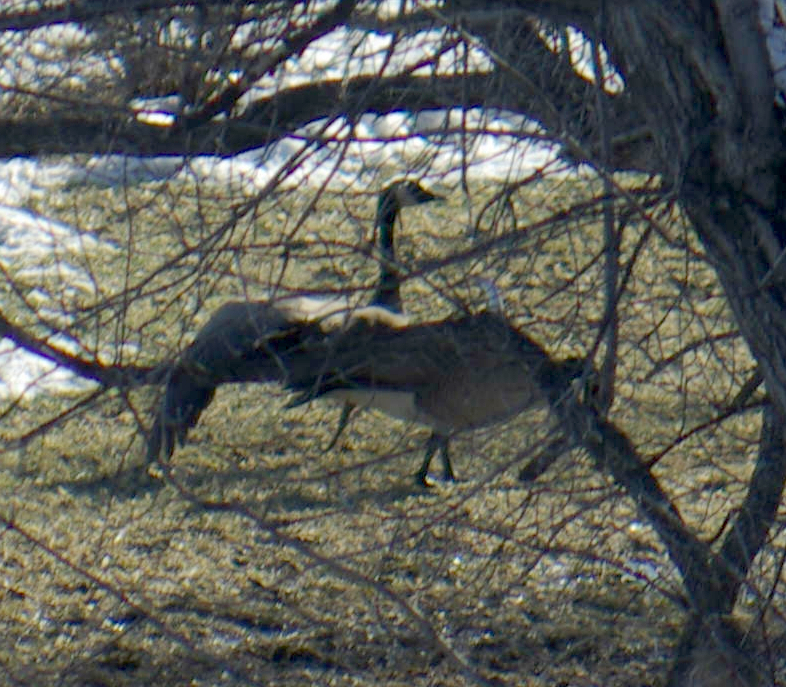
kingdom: Animalia
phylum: Chordata
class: Aves
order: Anseriformes
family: Anatidae
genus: Branta
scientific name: Branta canadensis
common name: Canada goose
